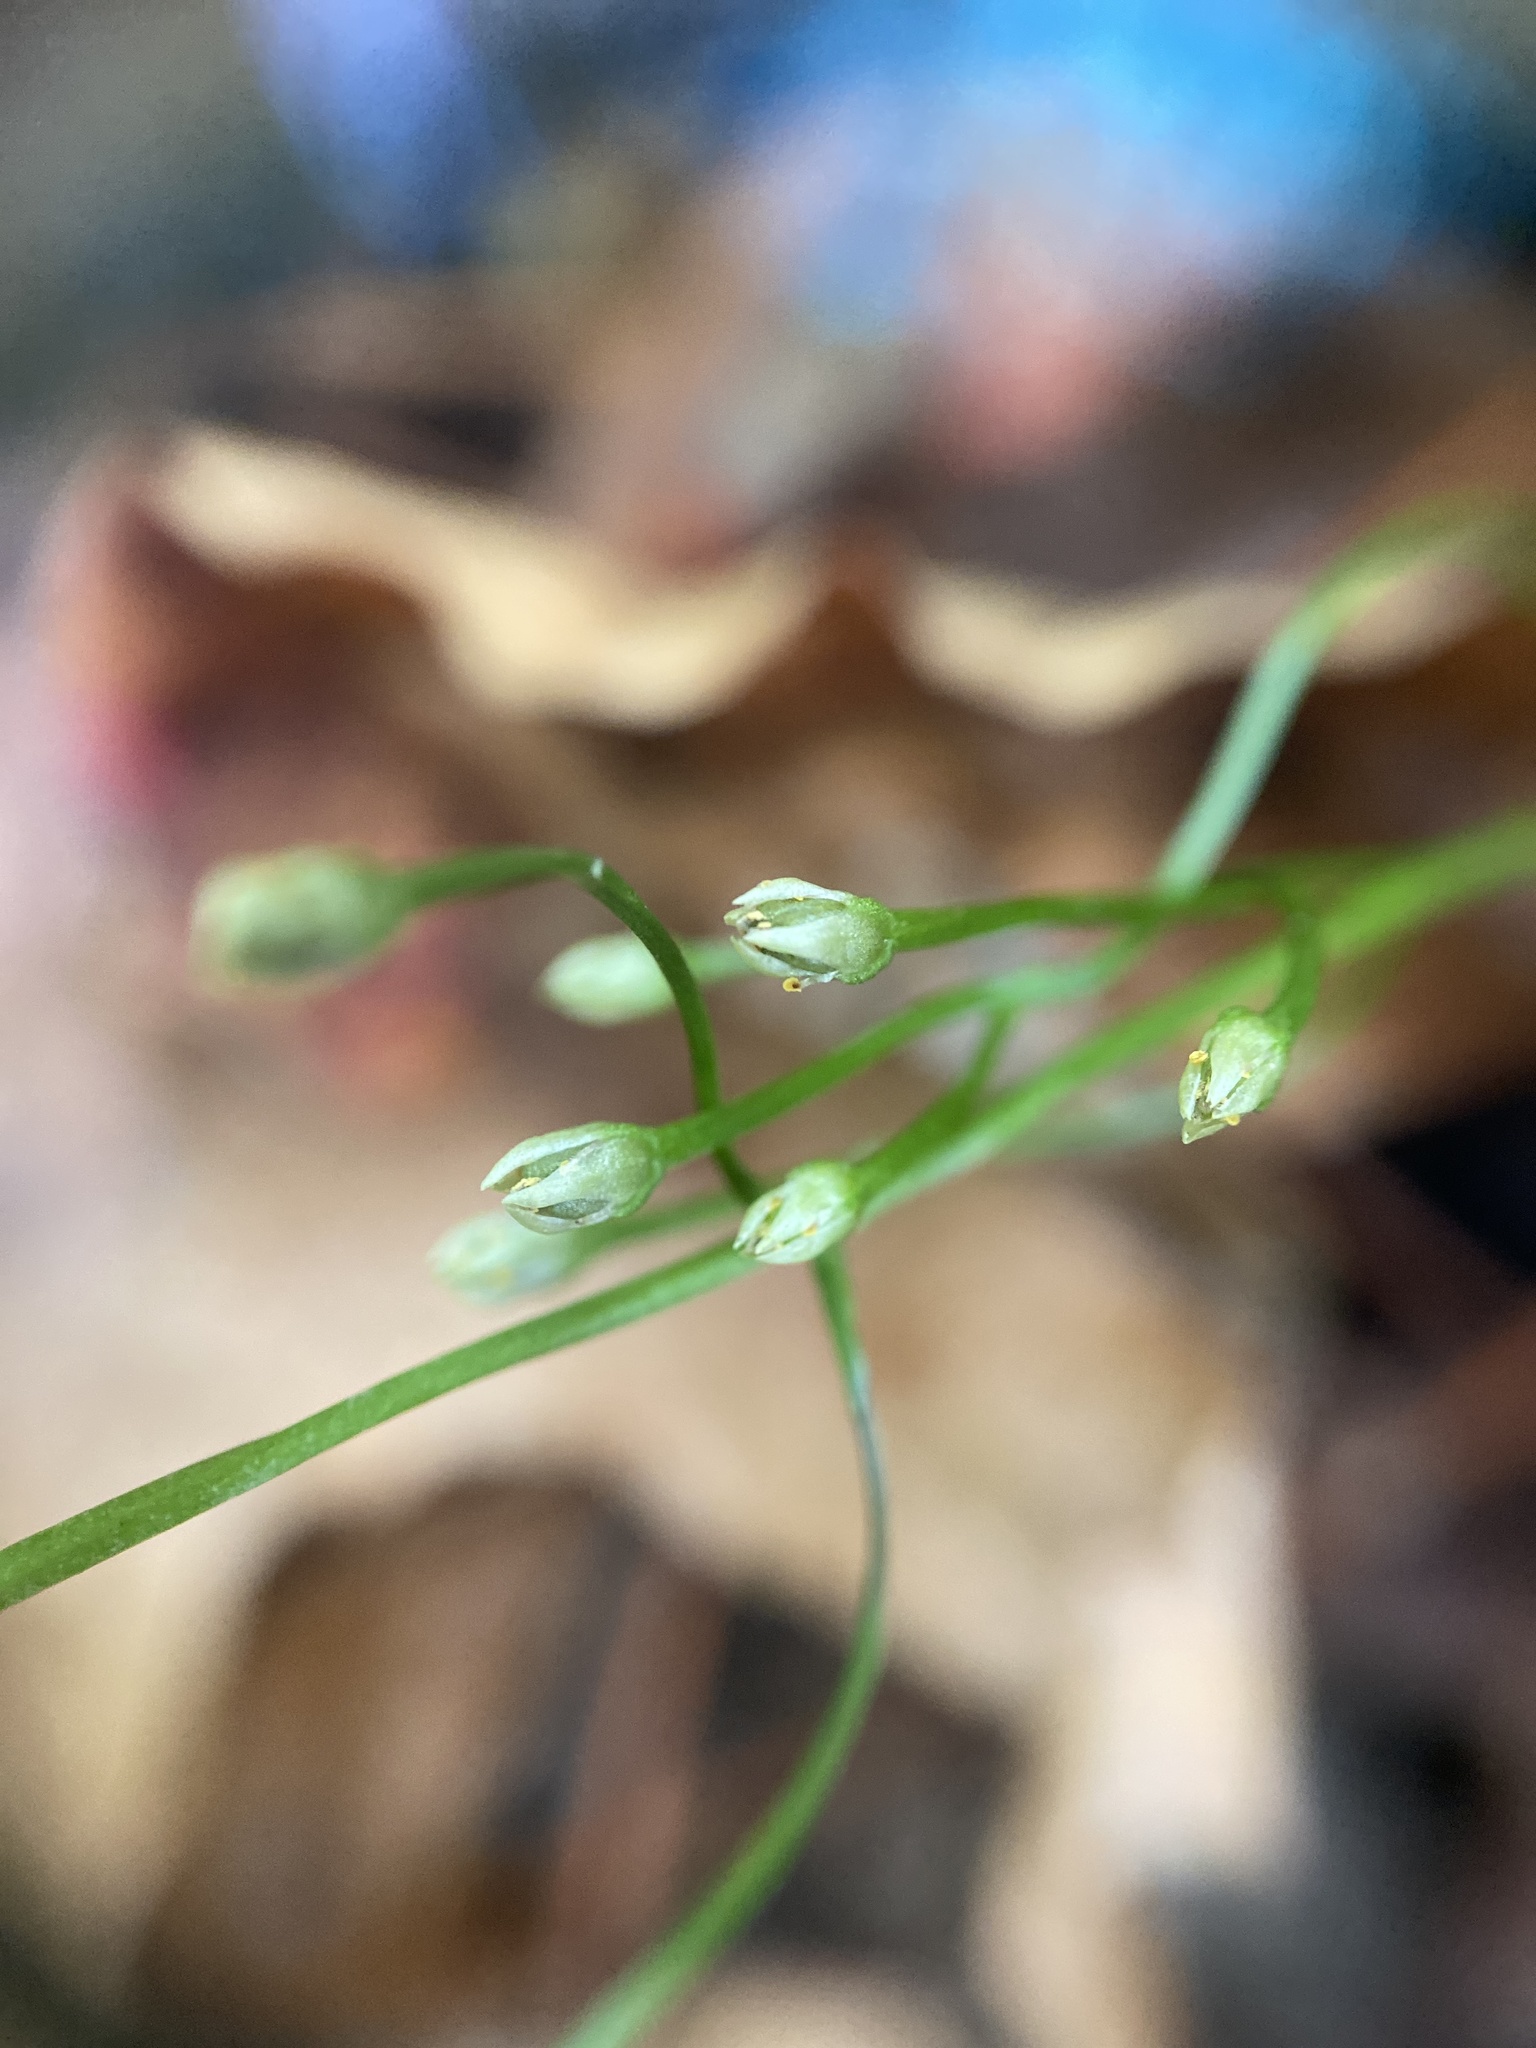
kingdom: Plantae
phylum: Tracheophyta
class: Magnoliopsida
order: Gentianales
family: Gentianaceae
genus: Bartonia
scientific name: Bartonia virginica
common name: Yellow bartonia
